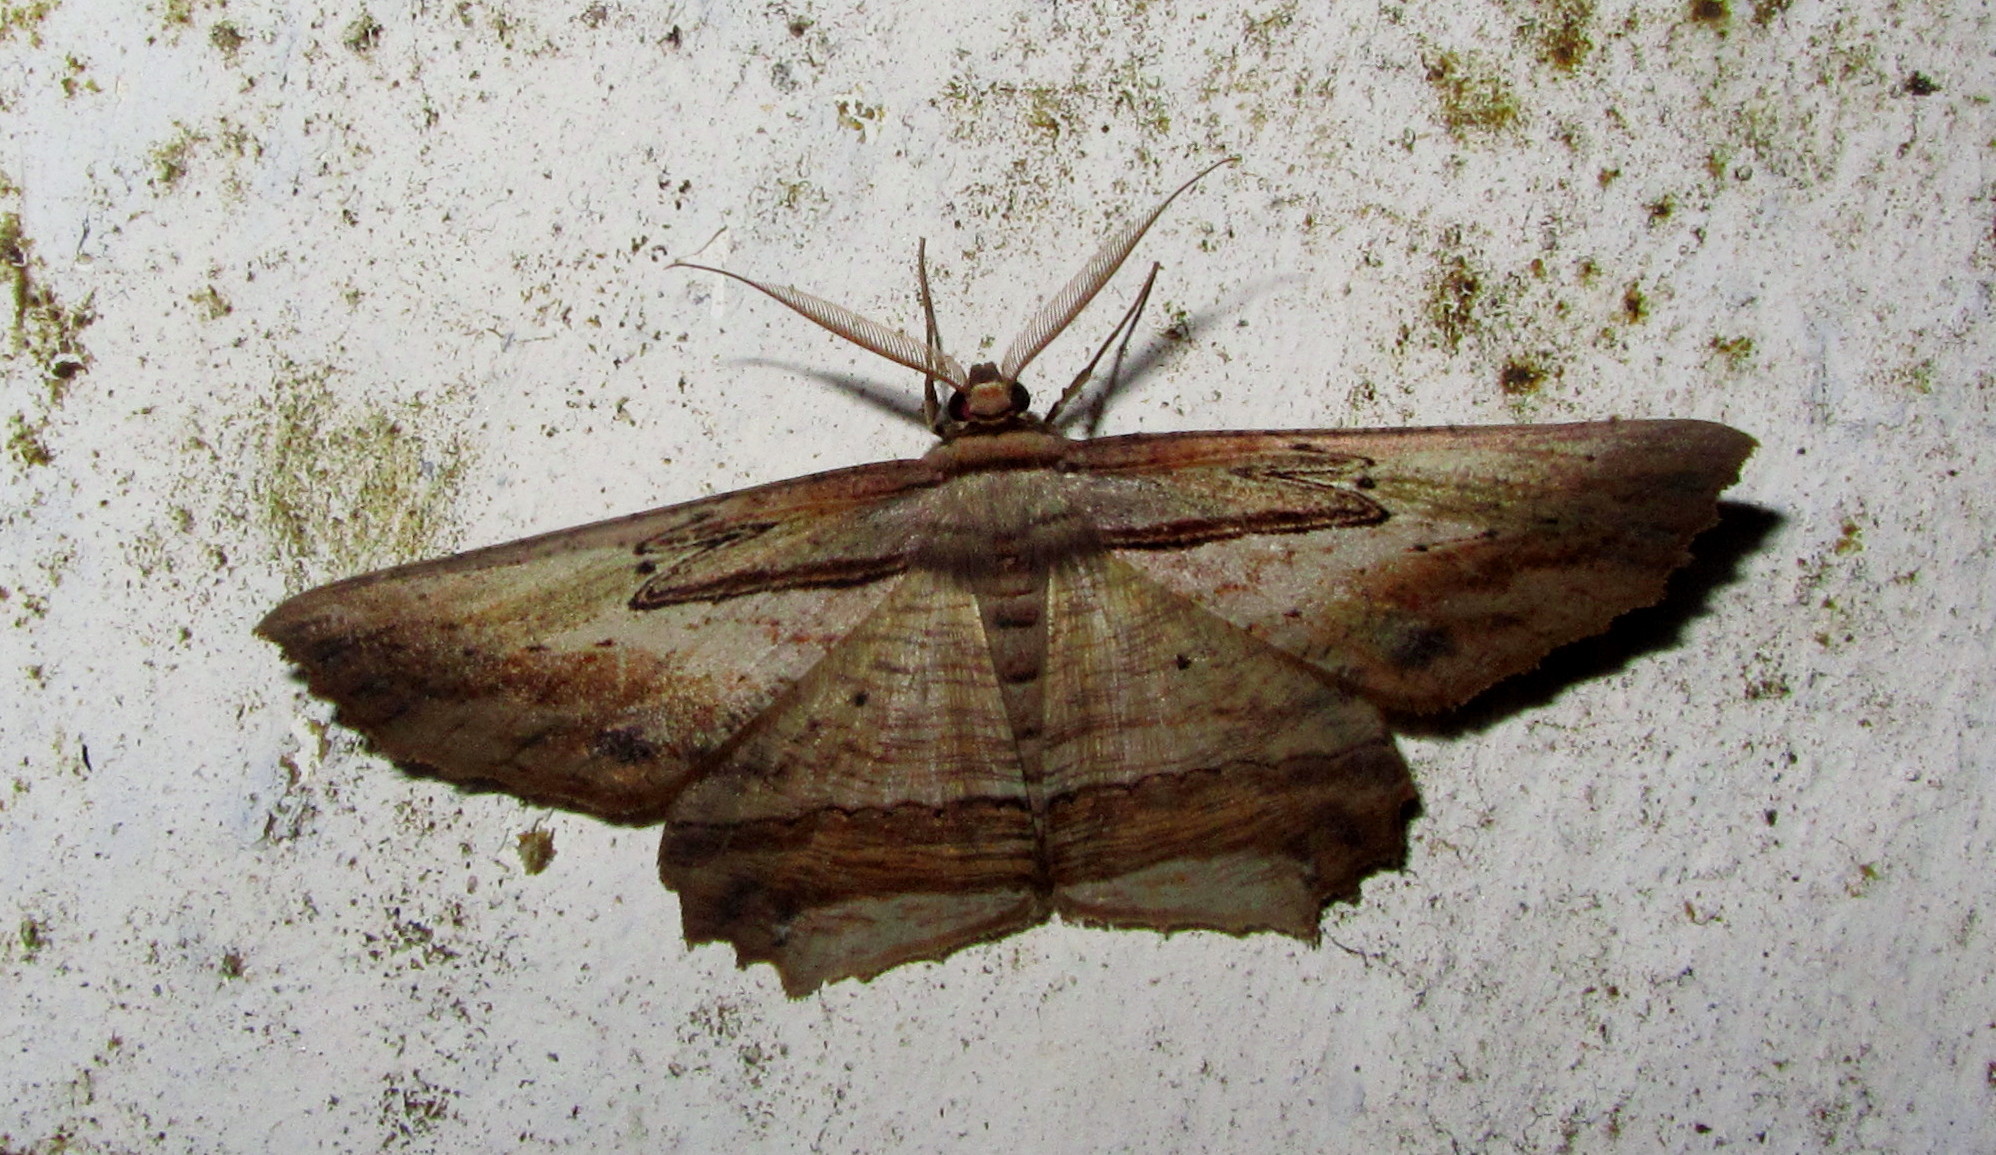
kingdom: Animalia
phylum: Arthropoda
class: Insecta
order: Lepidoptera
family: Geometridae
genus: Menophra
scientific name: Menophra serpentinaria
